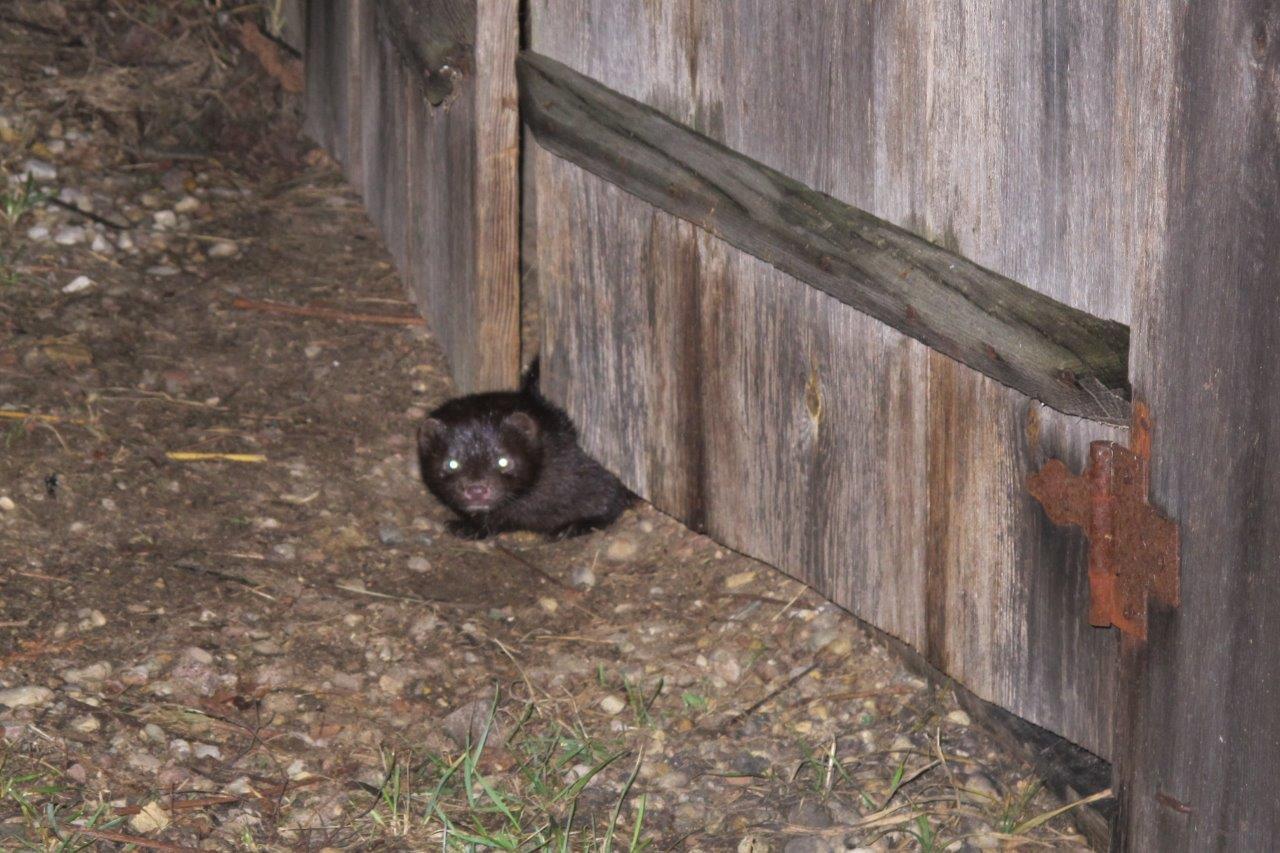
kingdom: Animalia
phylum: Chordata
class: Mammalia
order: Carnivora
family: Mustelidae
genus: Mustela
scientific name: Mustela
